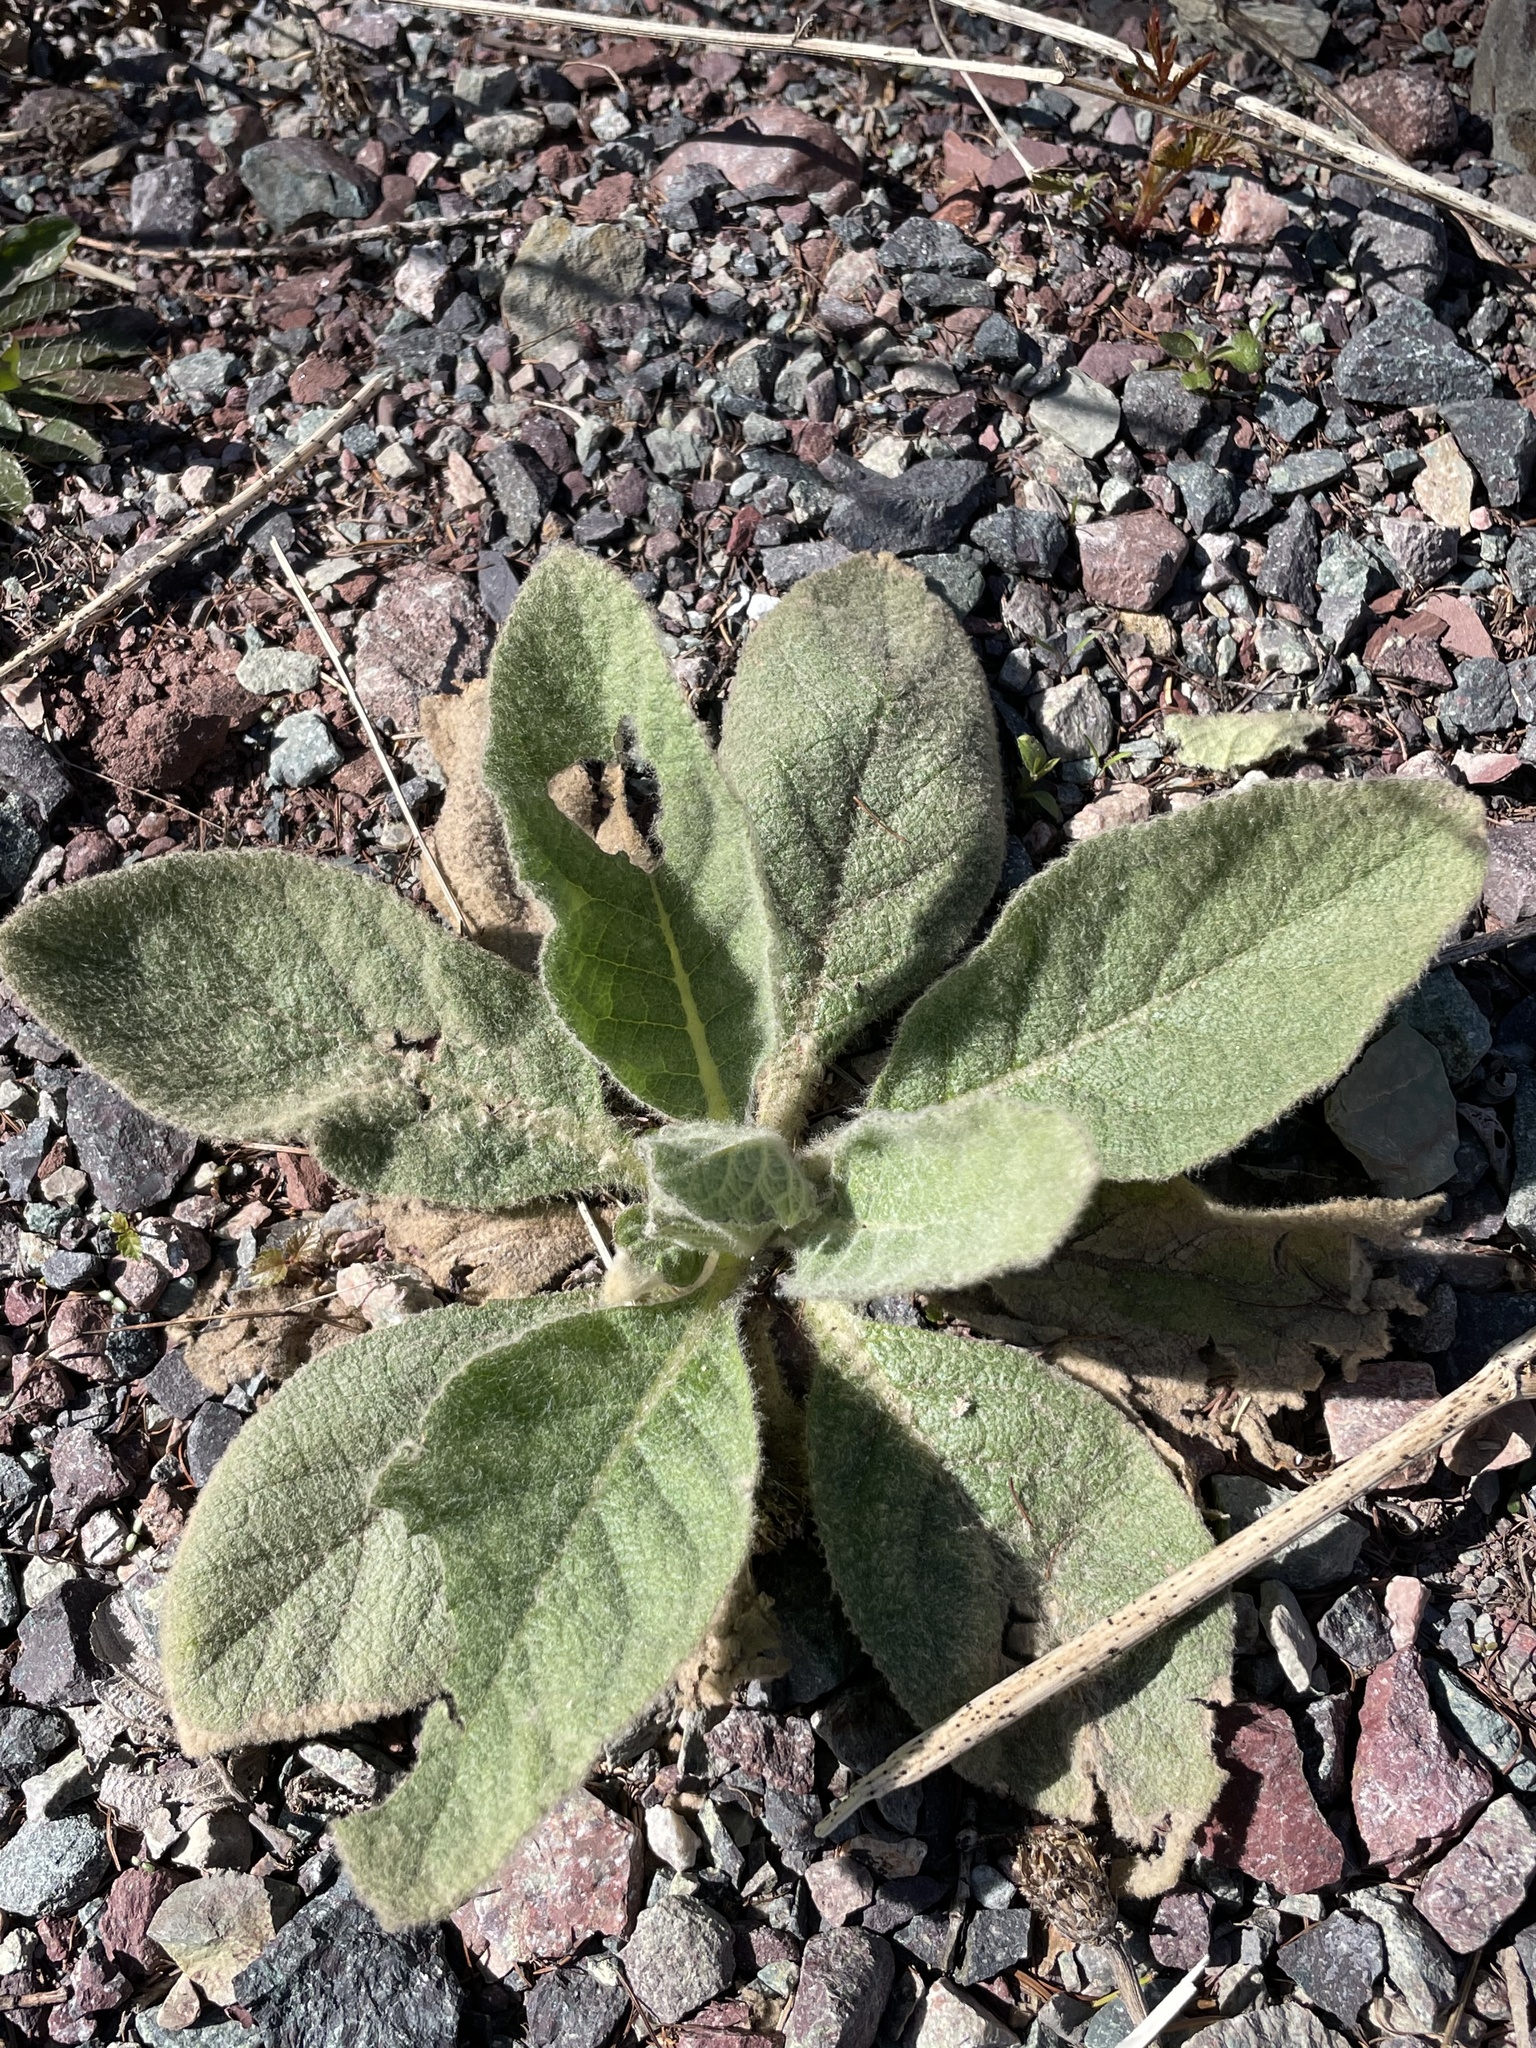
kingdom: Plantae
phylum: Tracheophyta
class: Magnoliopsida
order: Lamiales
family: Scrophulariaceae
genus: Verbascum
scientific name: Verbascum thapsus
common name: Common mullein
